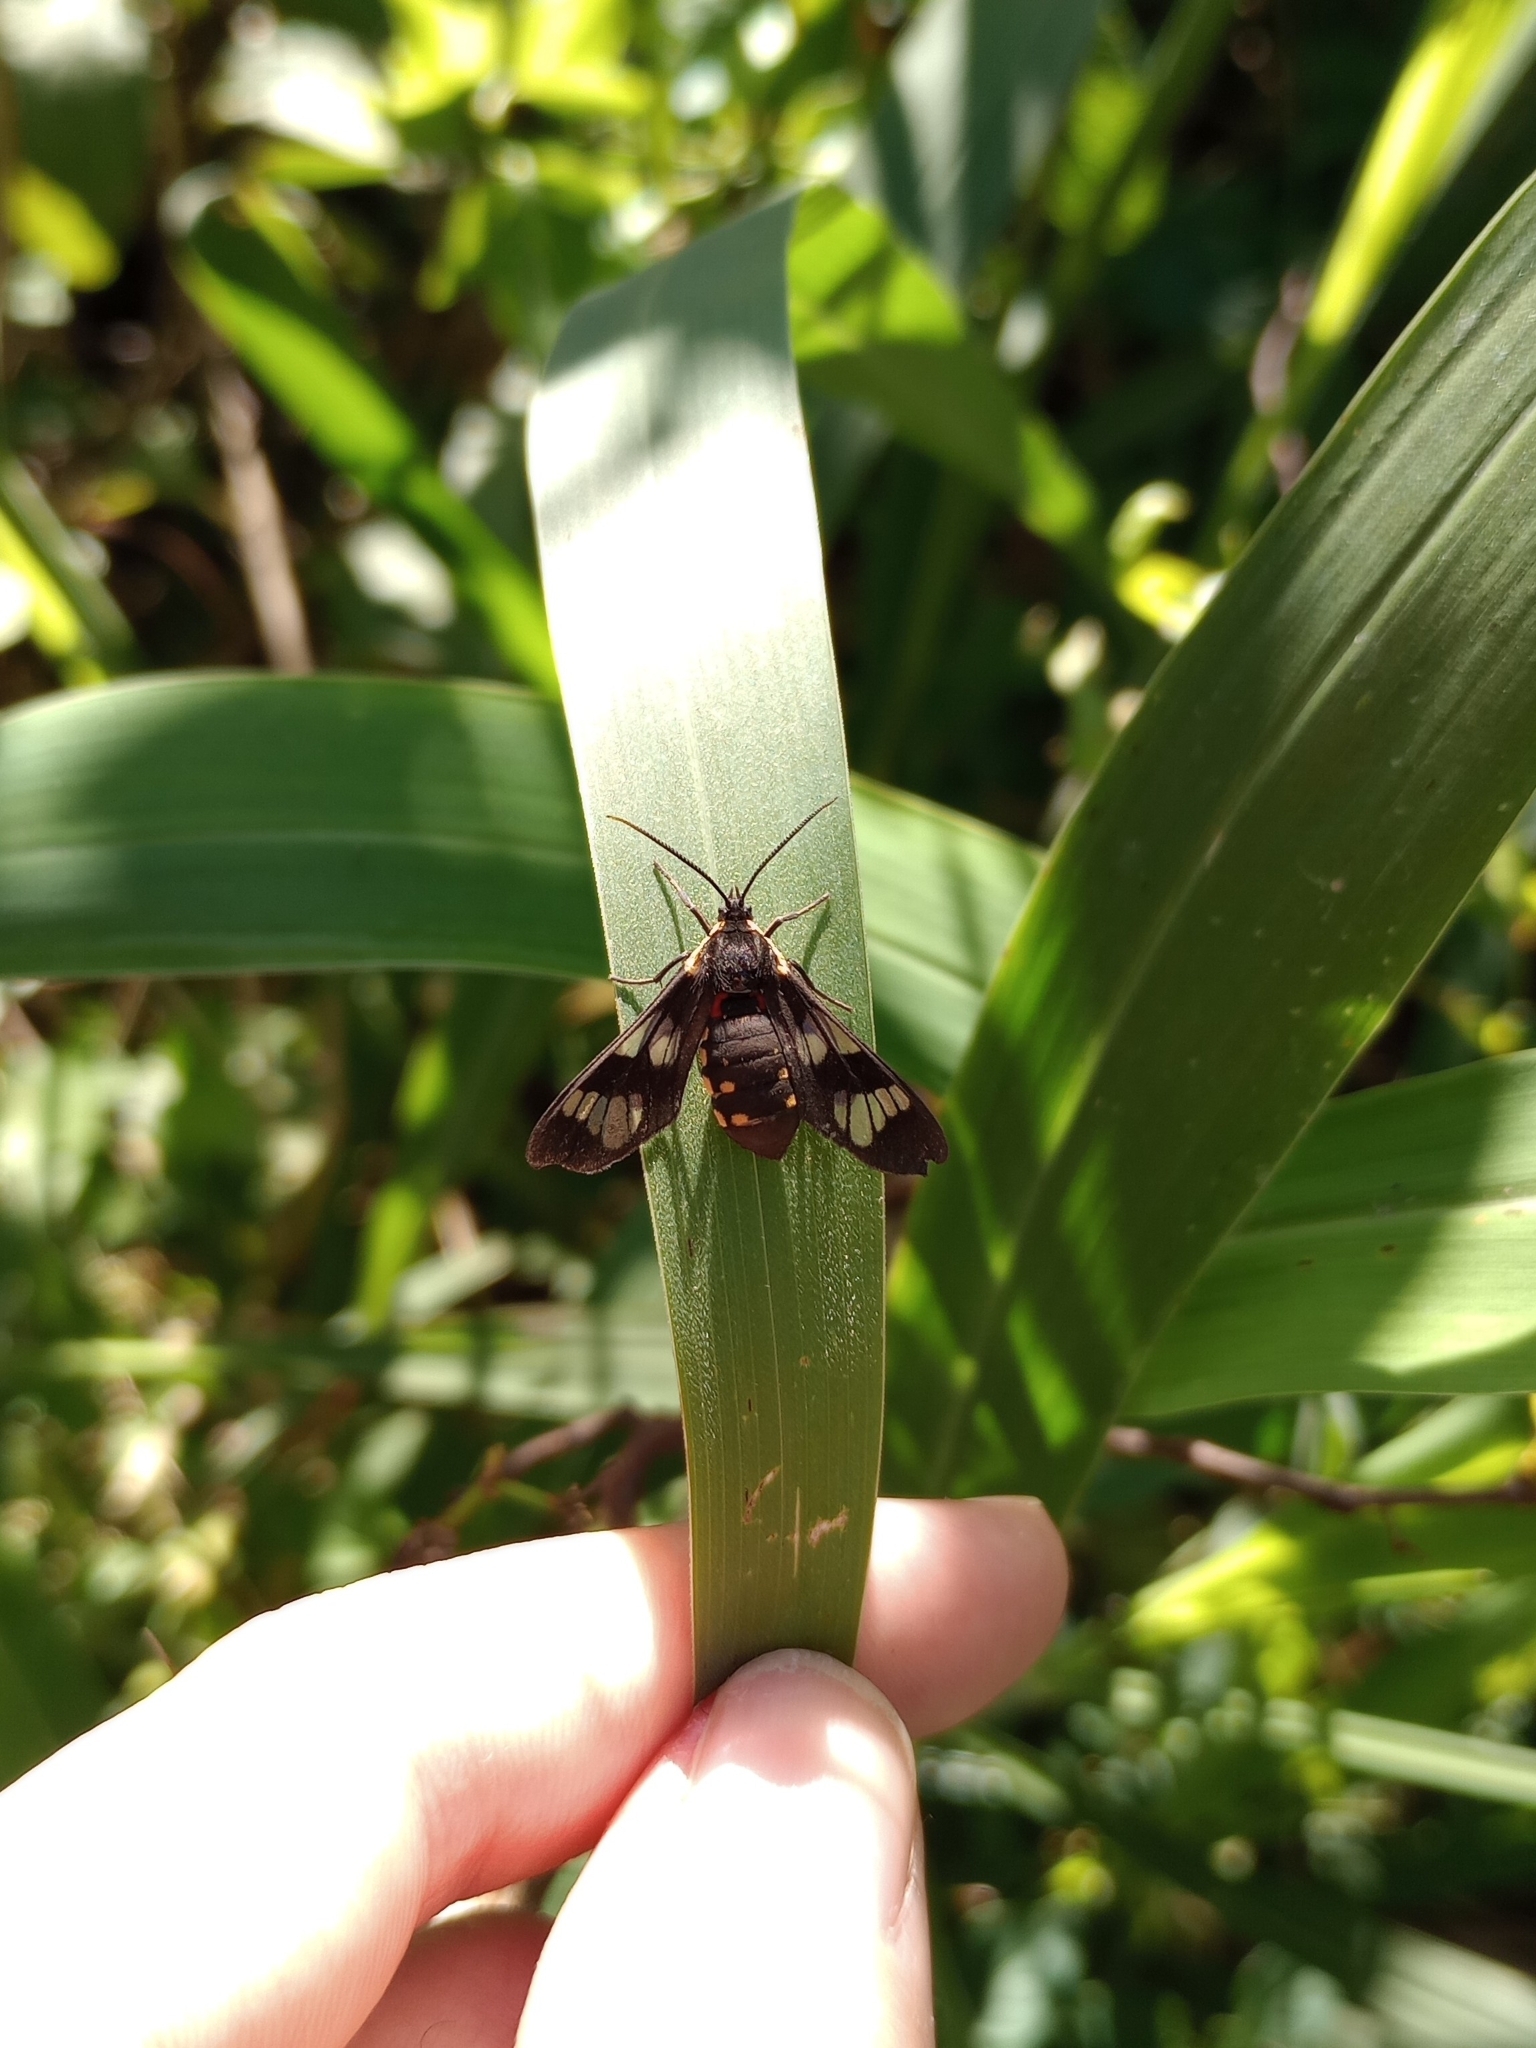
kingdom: Animalia
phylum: Arthropoda
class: Insecta
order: Lepidoptera
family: Erebidae
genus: Eurata
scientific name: Eurata hermione
